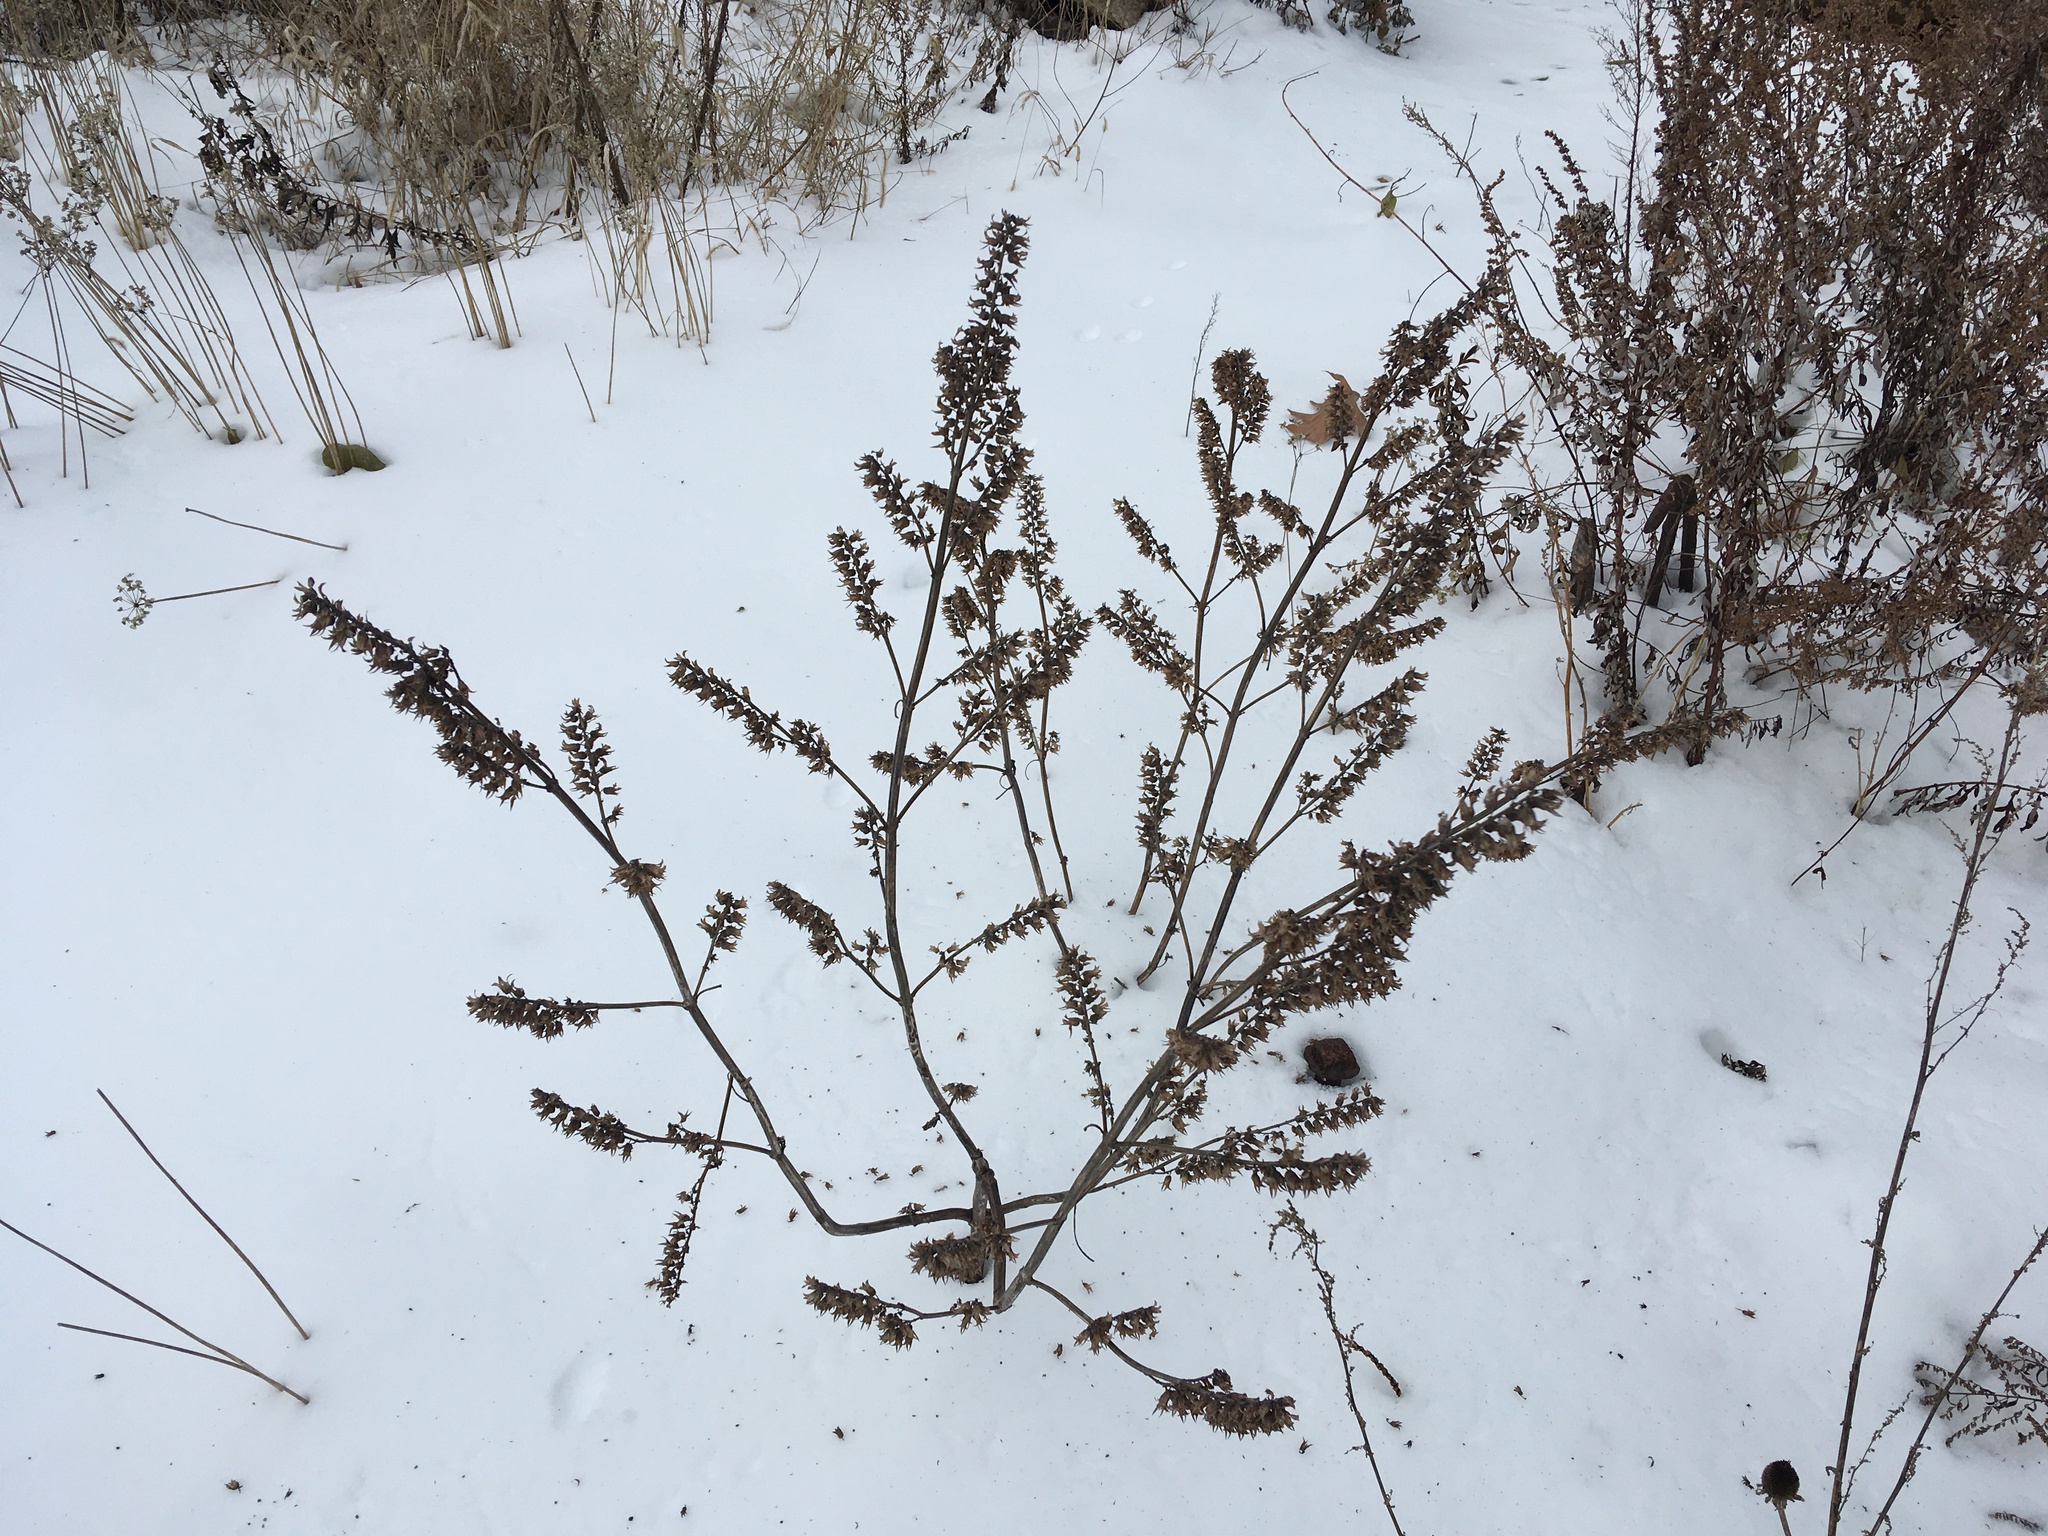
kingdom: Plantae
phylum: Tracheophyta
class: Magnoliopsida
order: Fabales
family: Fabaceae
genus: Amorpha
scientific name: Amorpha fruticosa
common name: False indigo
